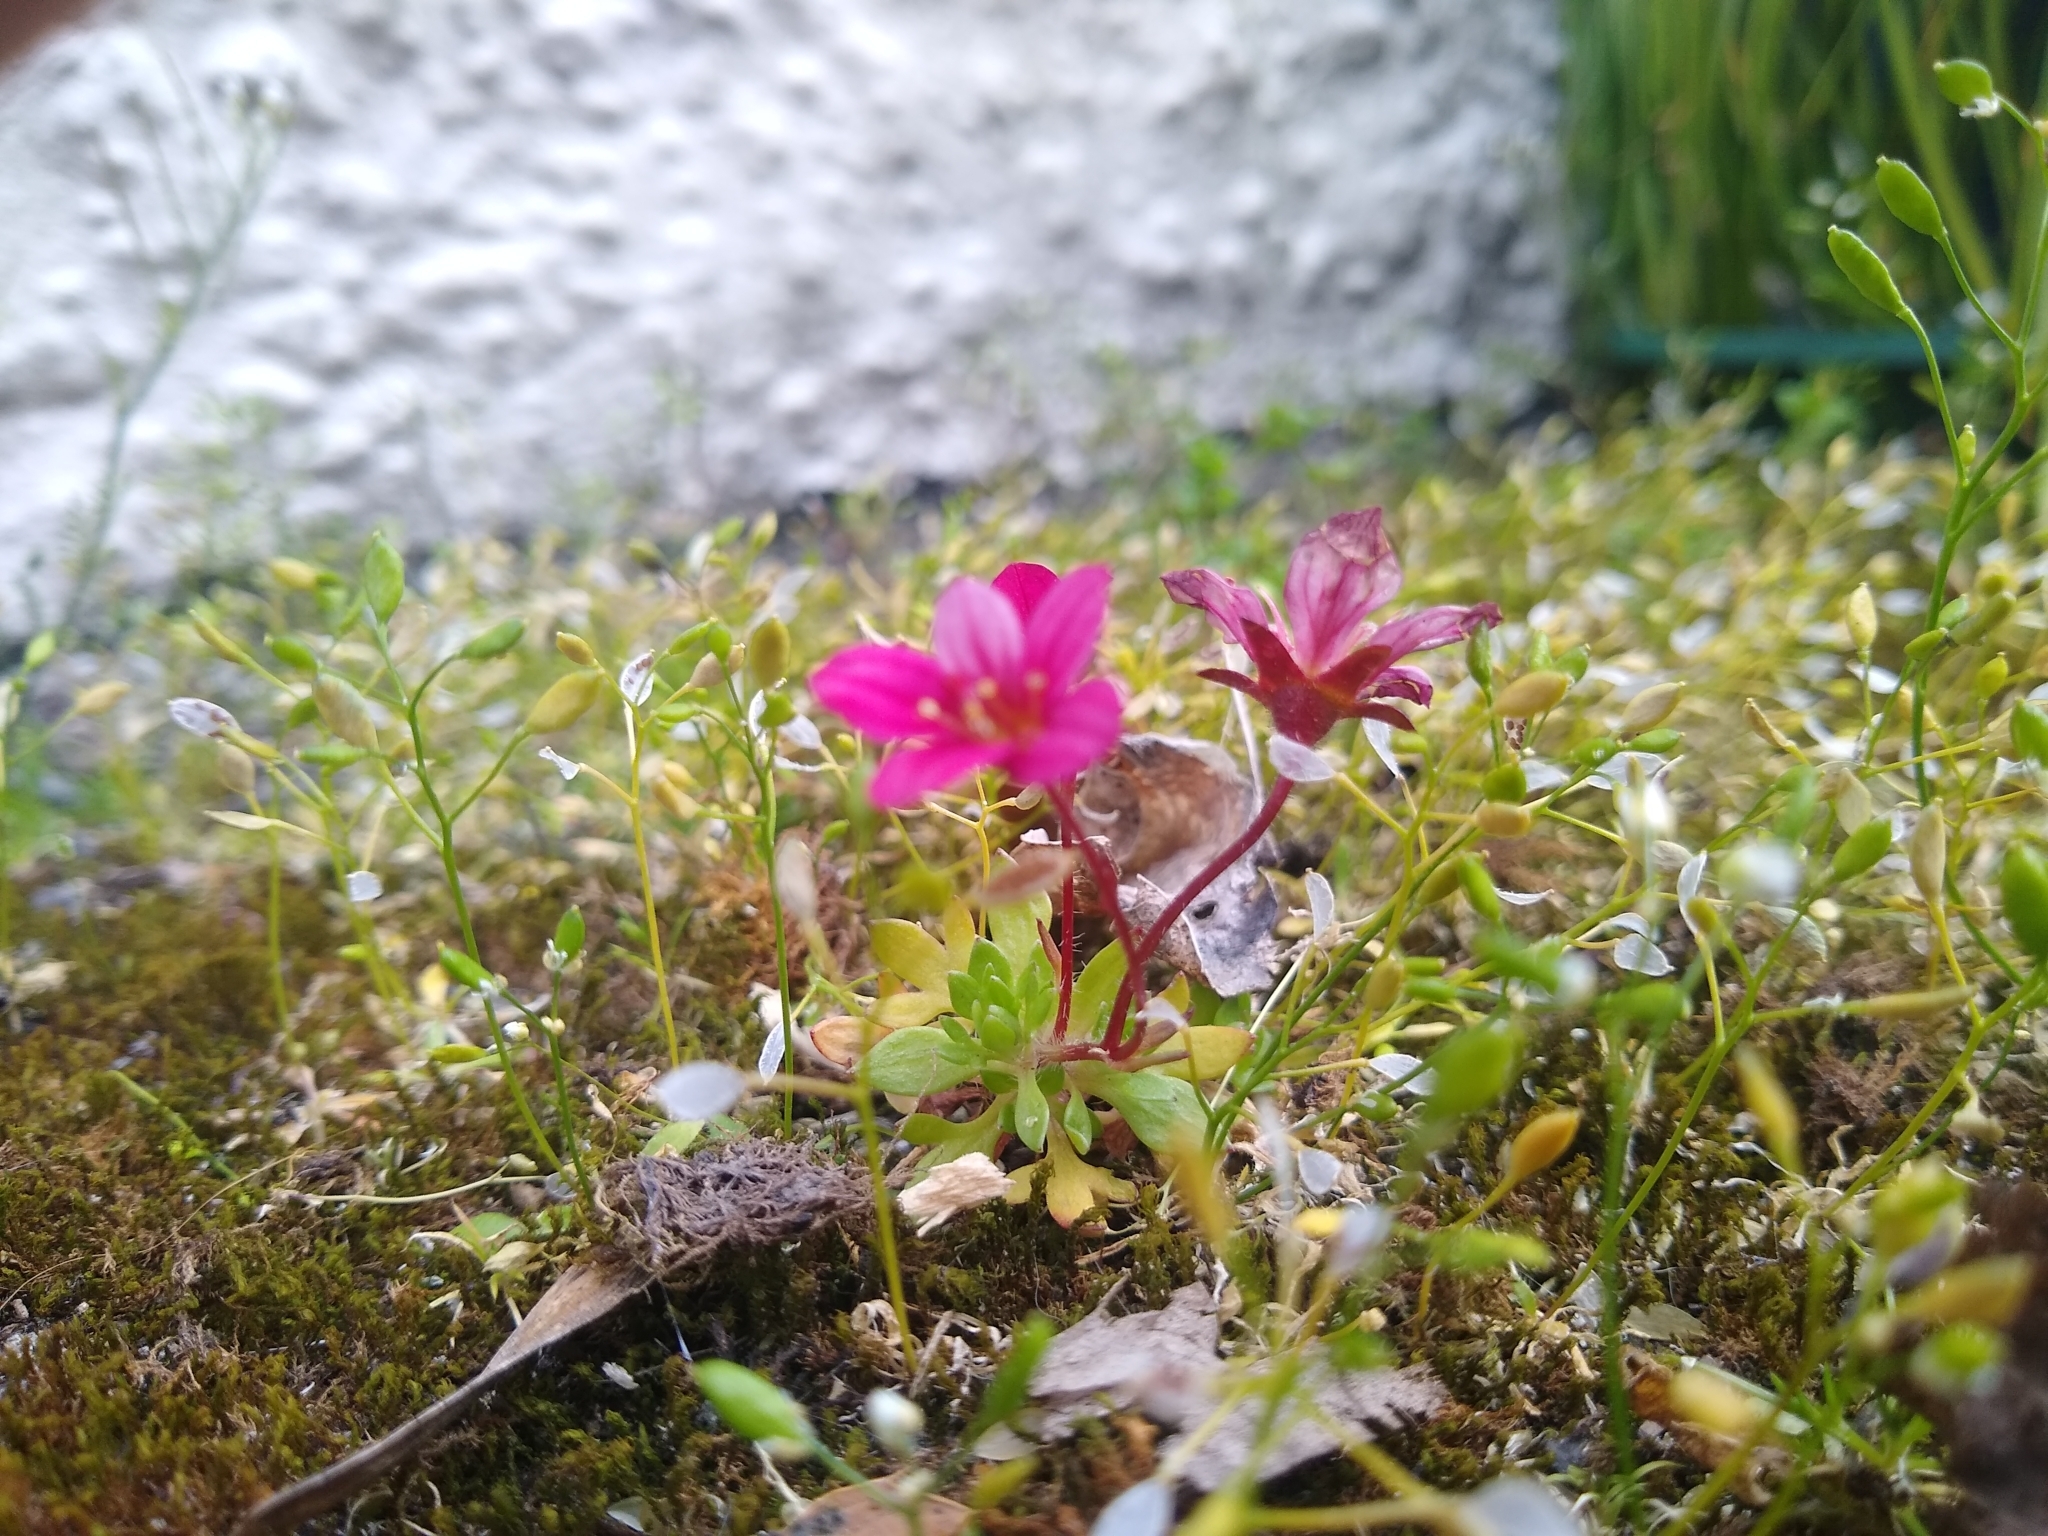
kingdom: Plantae
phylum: Tracheophyta
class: Magnoliopsida
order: Saxifragales
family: Saxifragaceae
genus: Saxifraga
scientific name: Saxifraga arendsii
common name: Garden mossy-saxifrage
